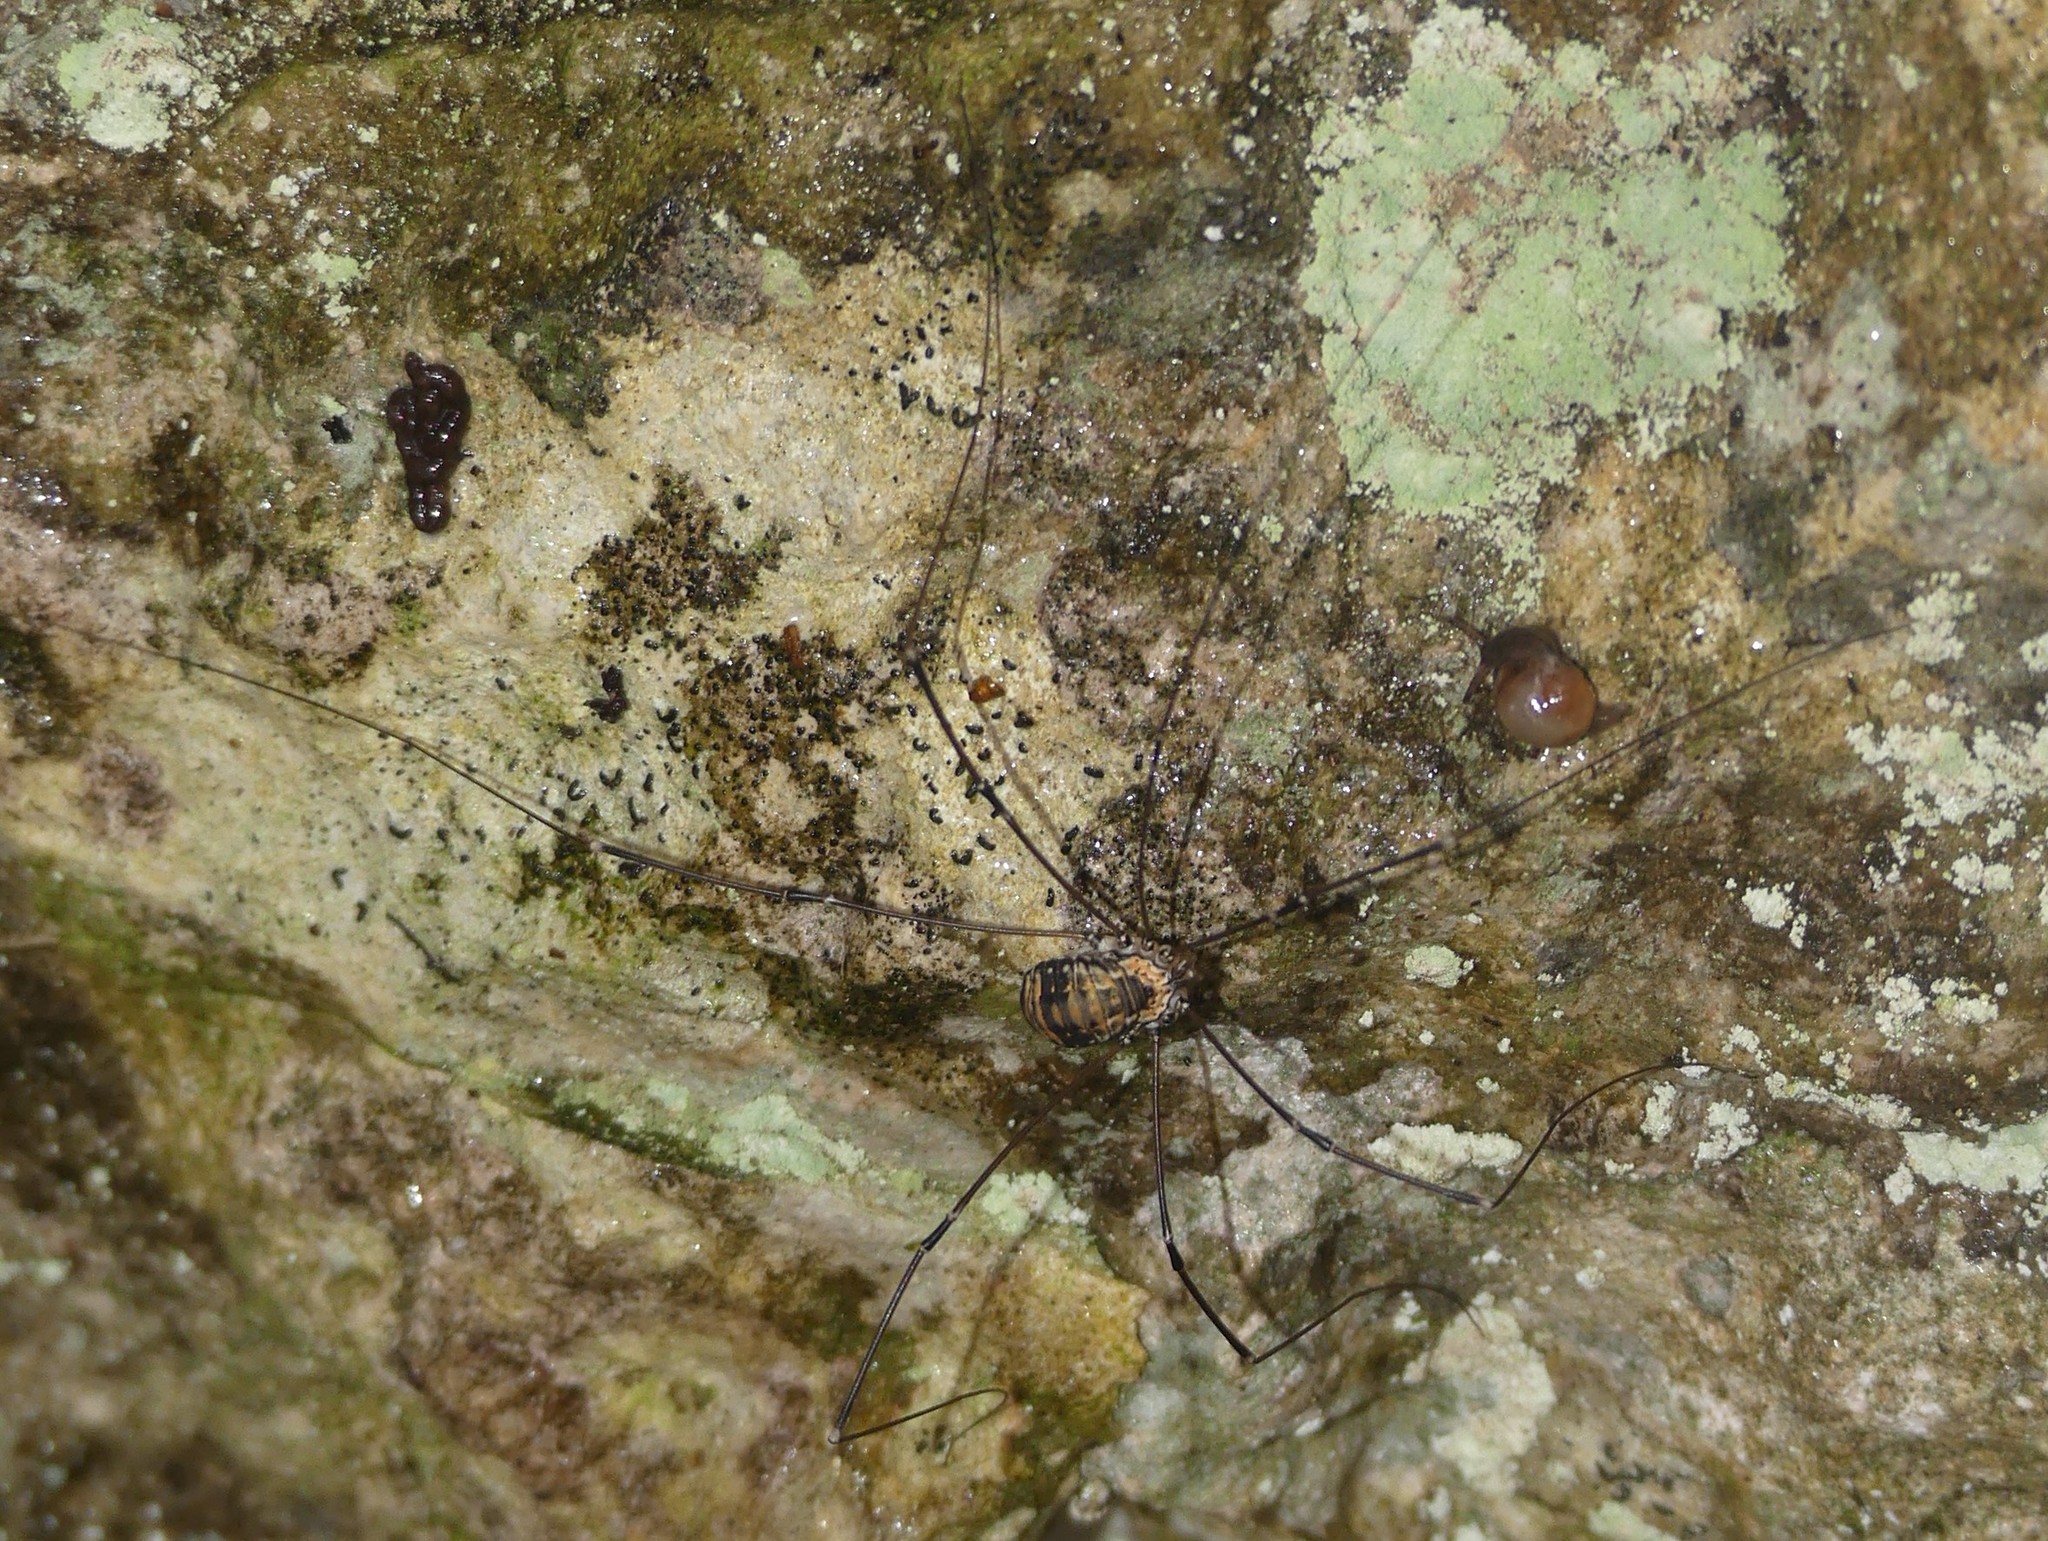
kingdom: Animalia
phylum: Arthropoda
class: Arachnida
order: Opiliones
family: Sclerosomatidae
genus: Leiobunum
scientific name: Leiobunum limbatum
